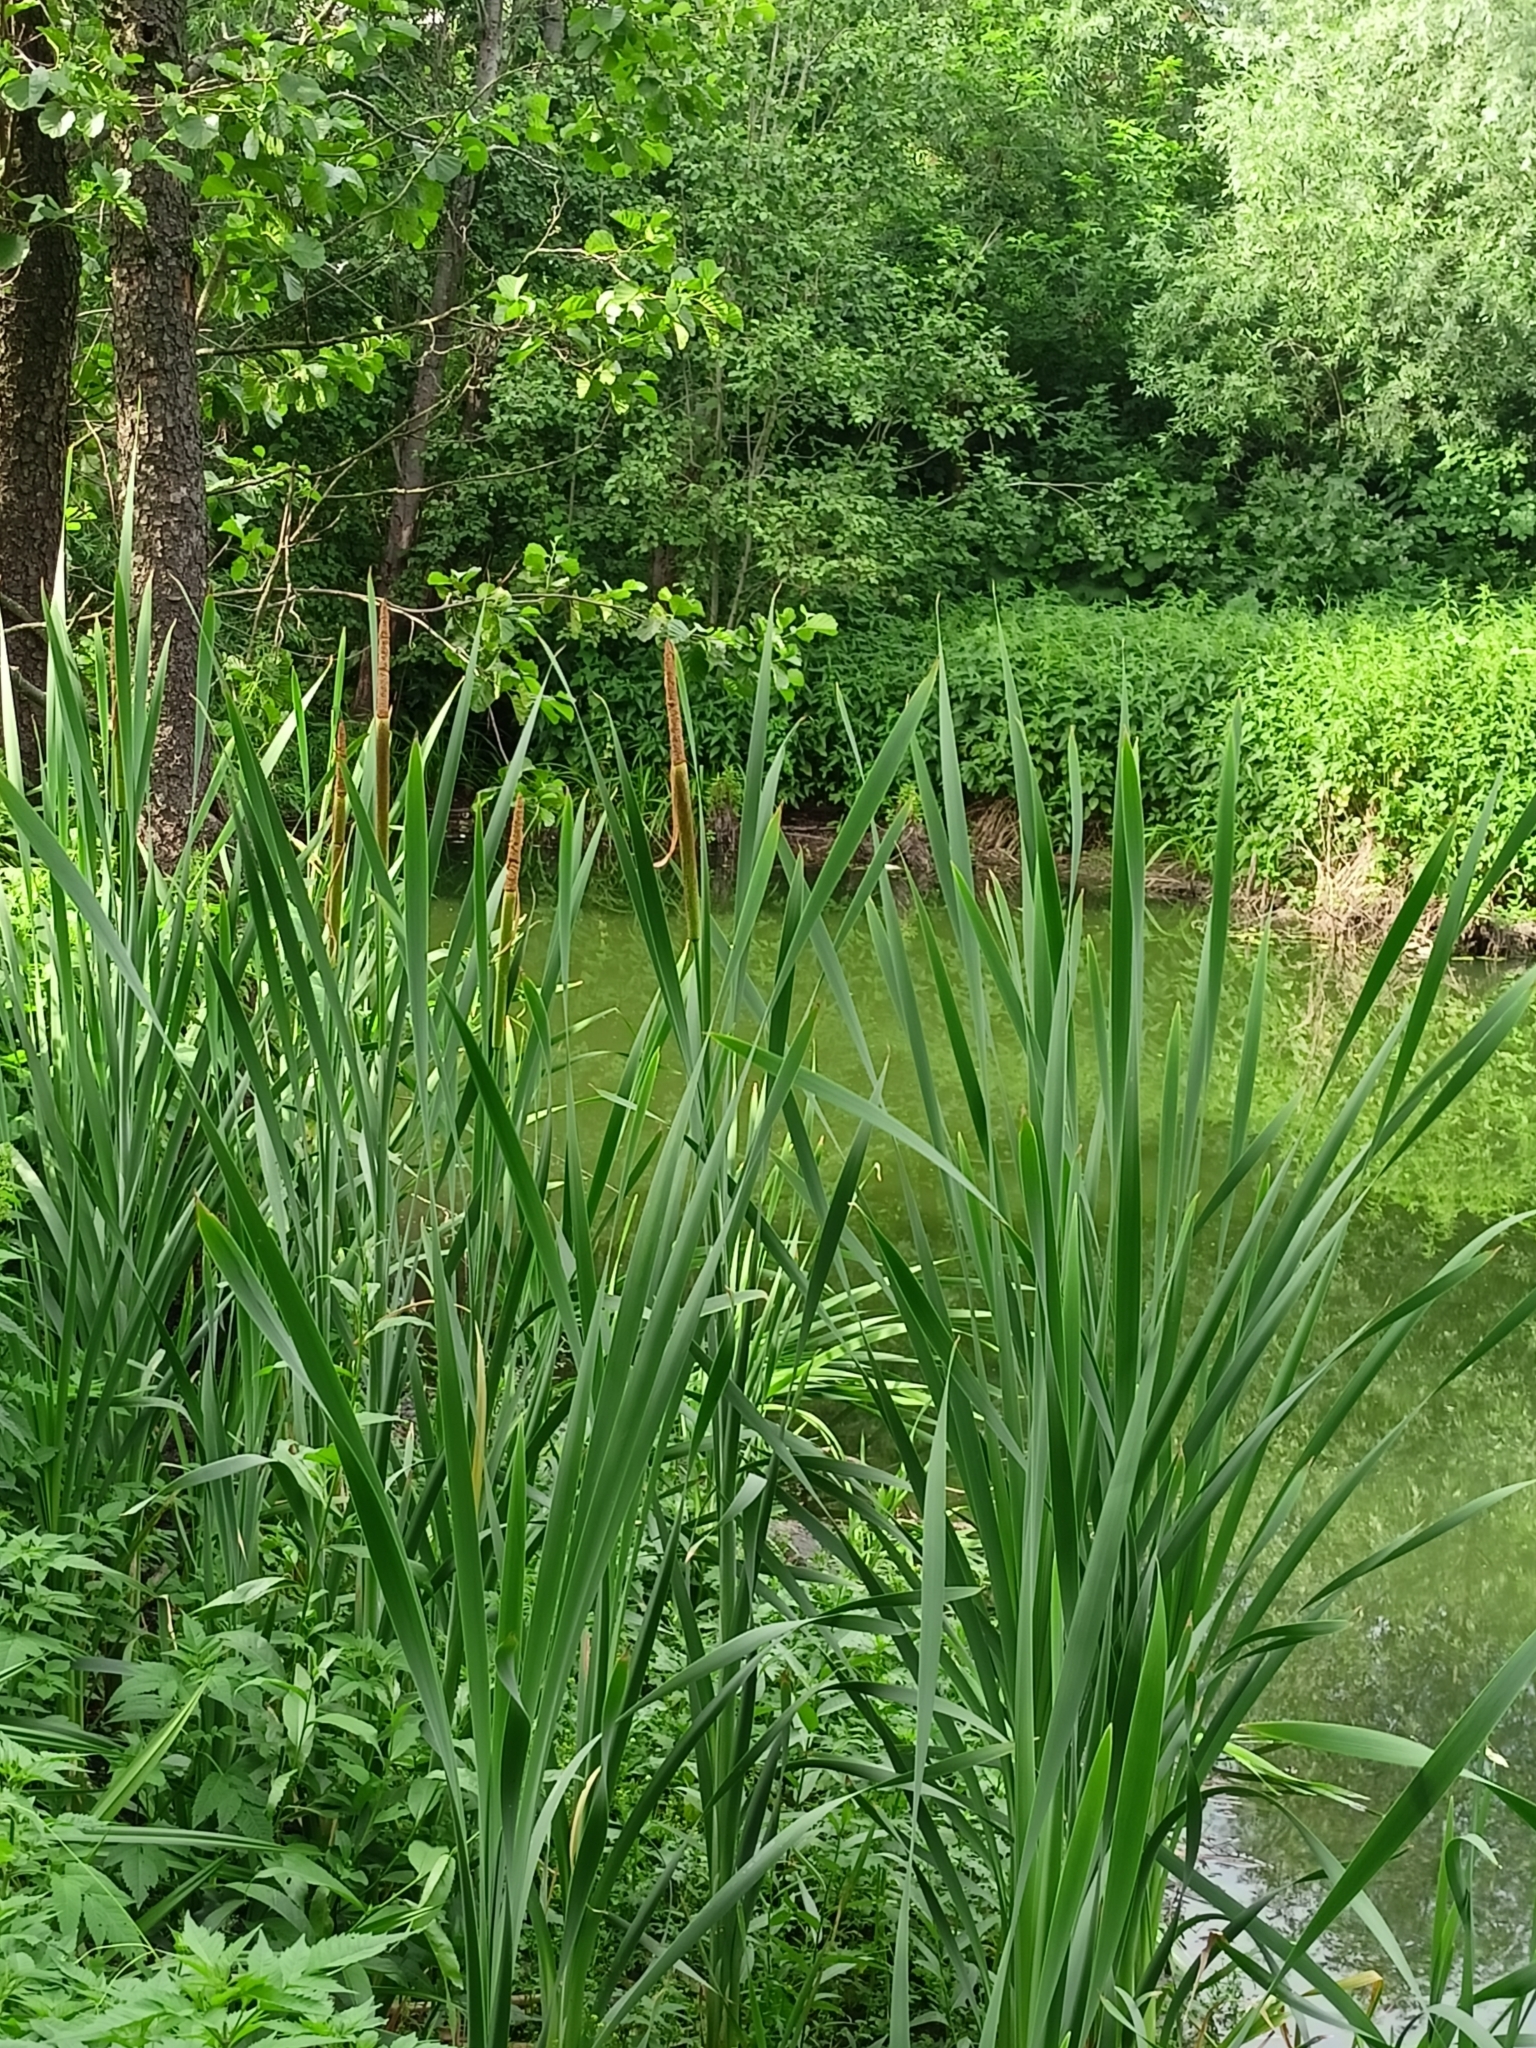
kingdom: Plantae
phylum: Tracheophyta
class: Liliopsida
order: Poales
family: Typhaceae
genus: Typha
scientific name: Typha latifolia
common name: Broadleaf cattail
